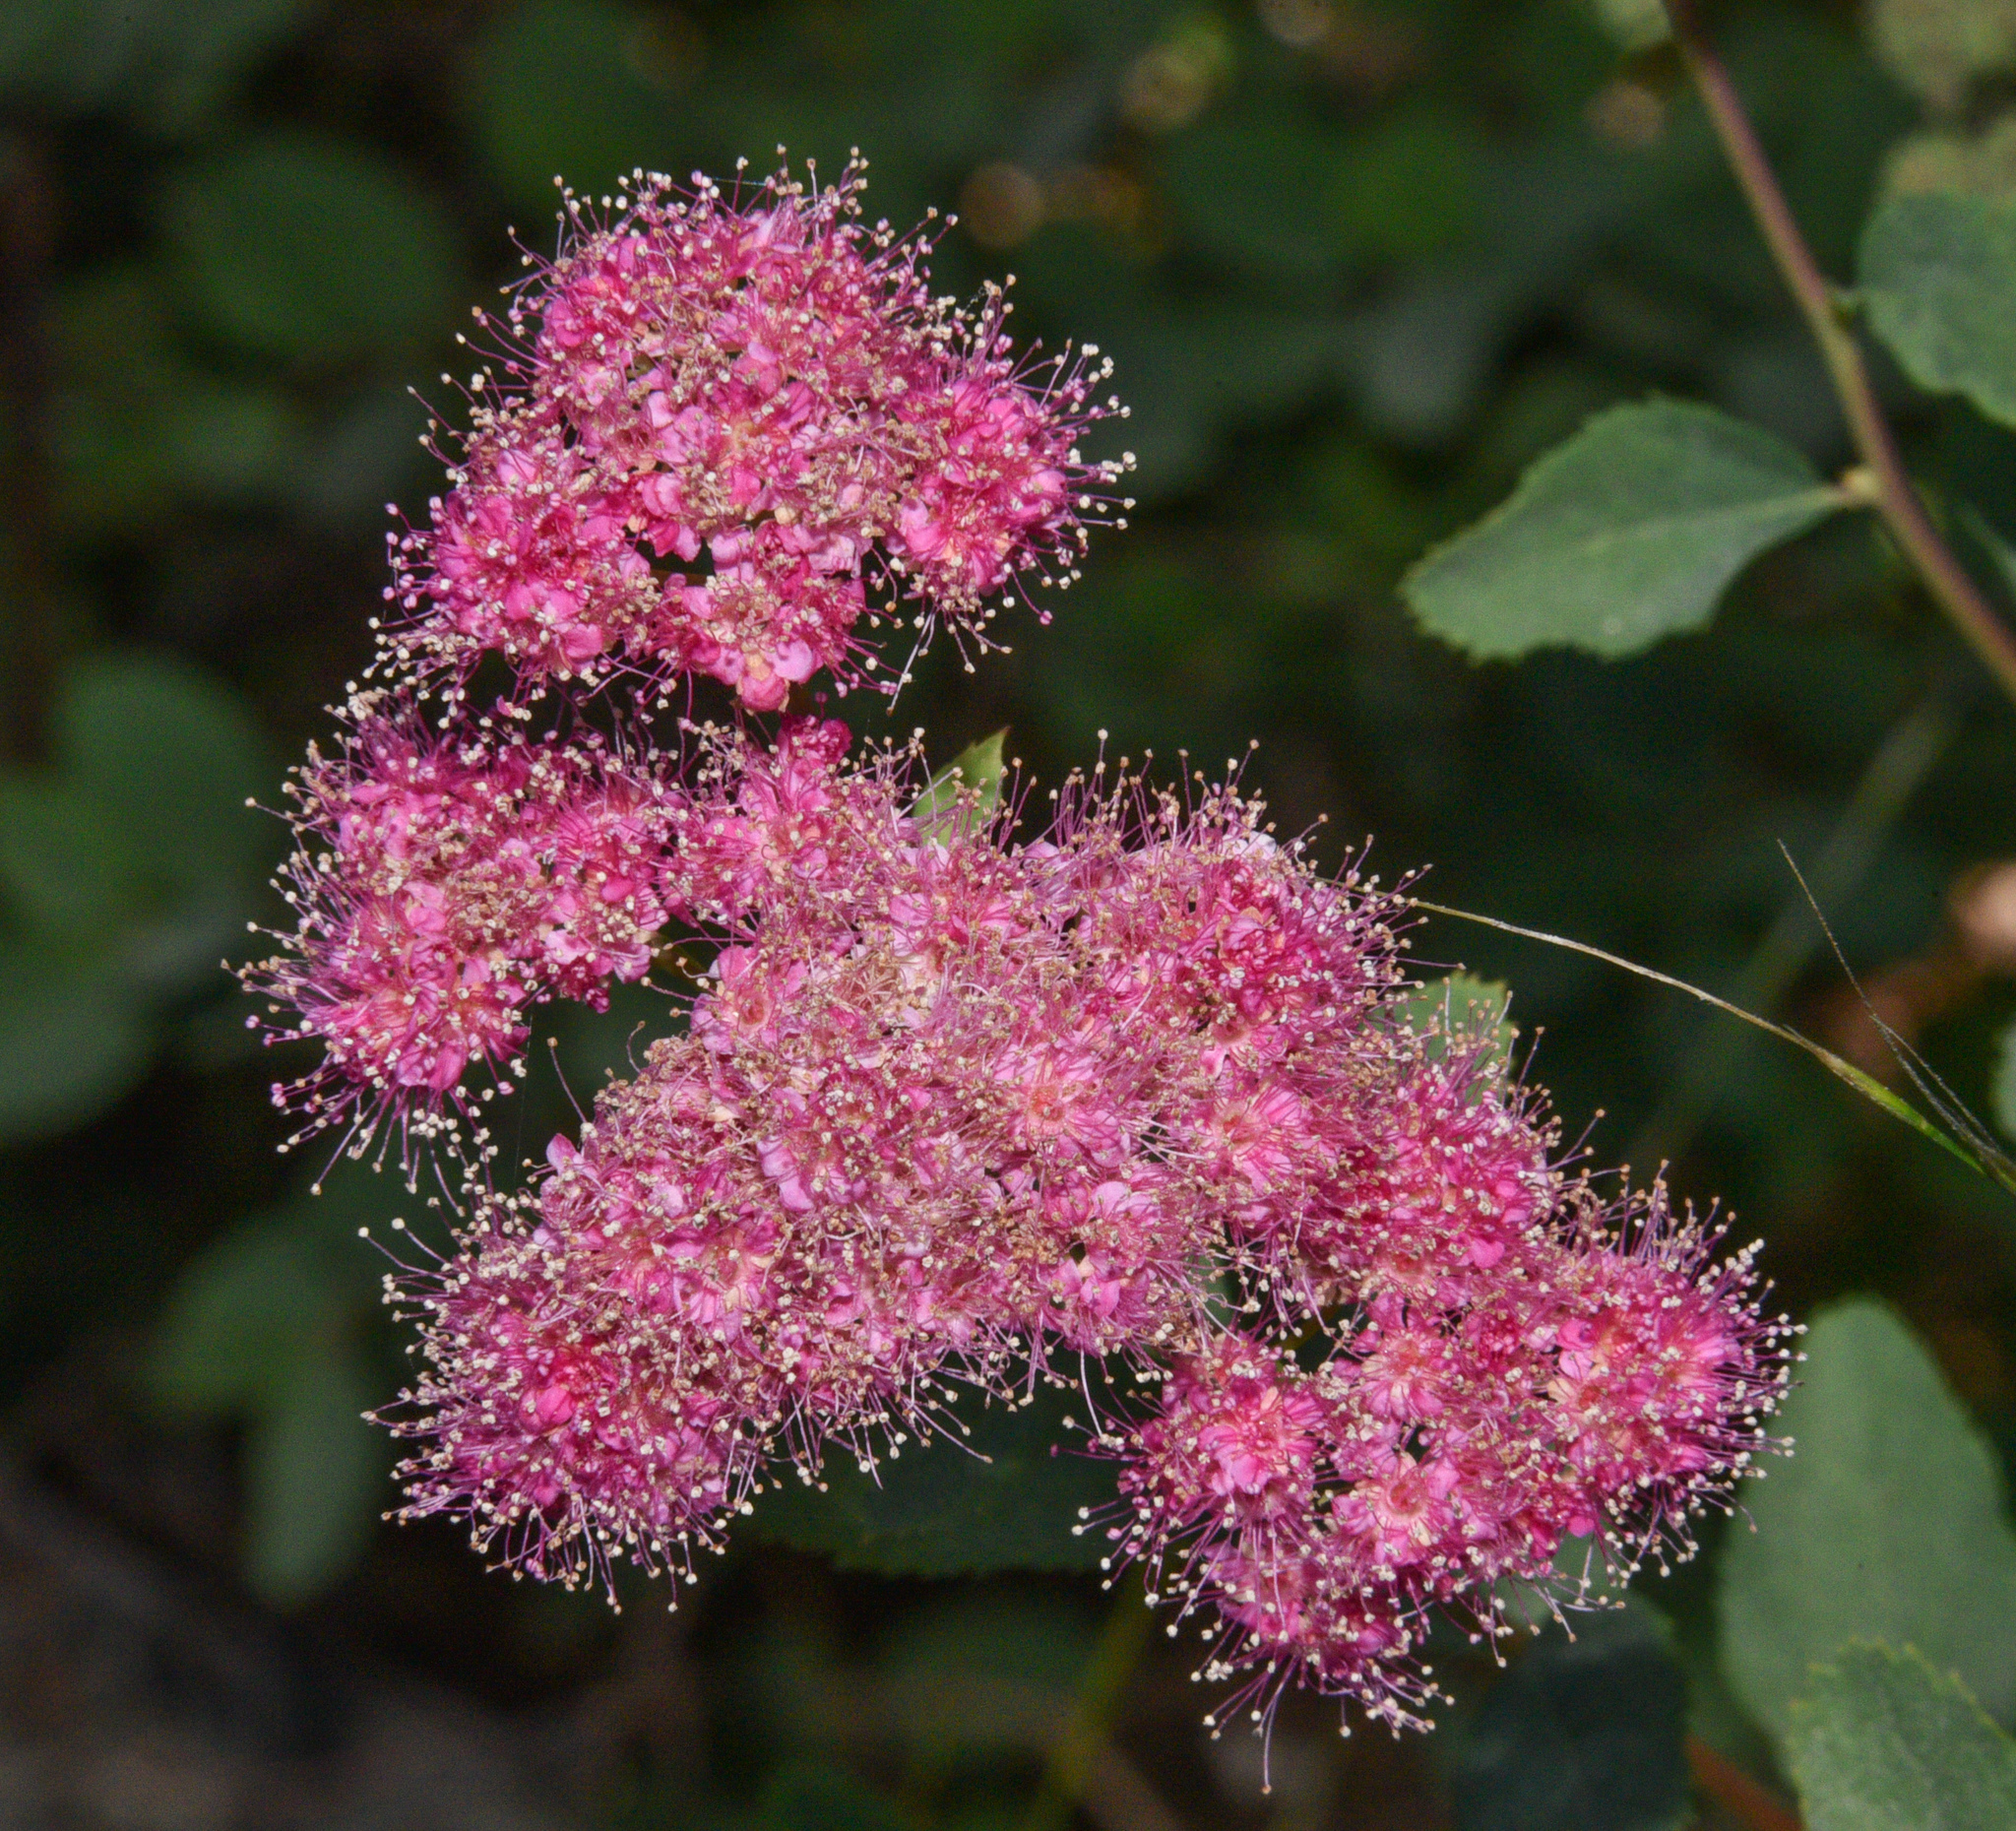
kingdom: Plantae
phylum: Tracheophyta
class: Magnoliopsida
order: Rosales
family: Rosaceae
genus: Spiraea
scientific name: Spiraea splendens
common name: Subalpine meadowsweet
